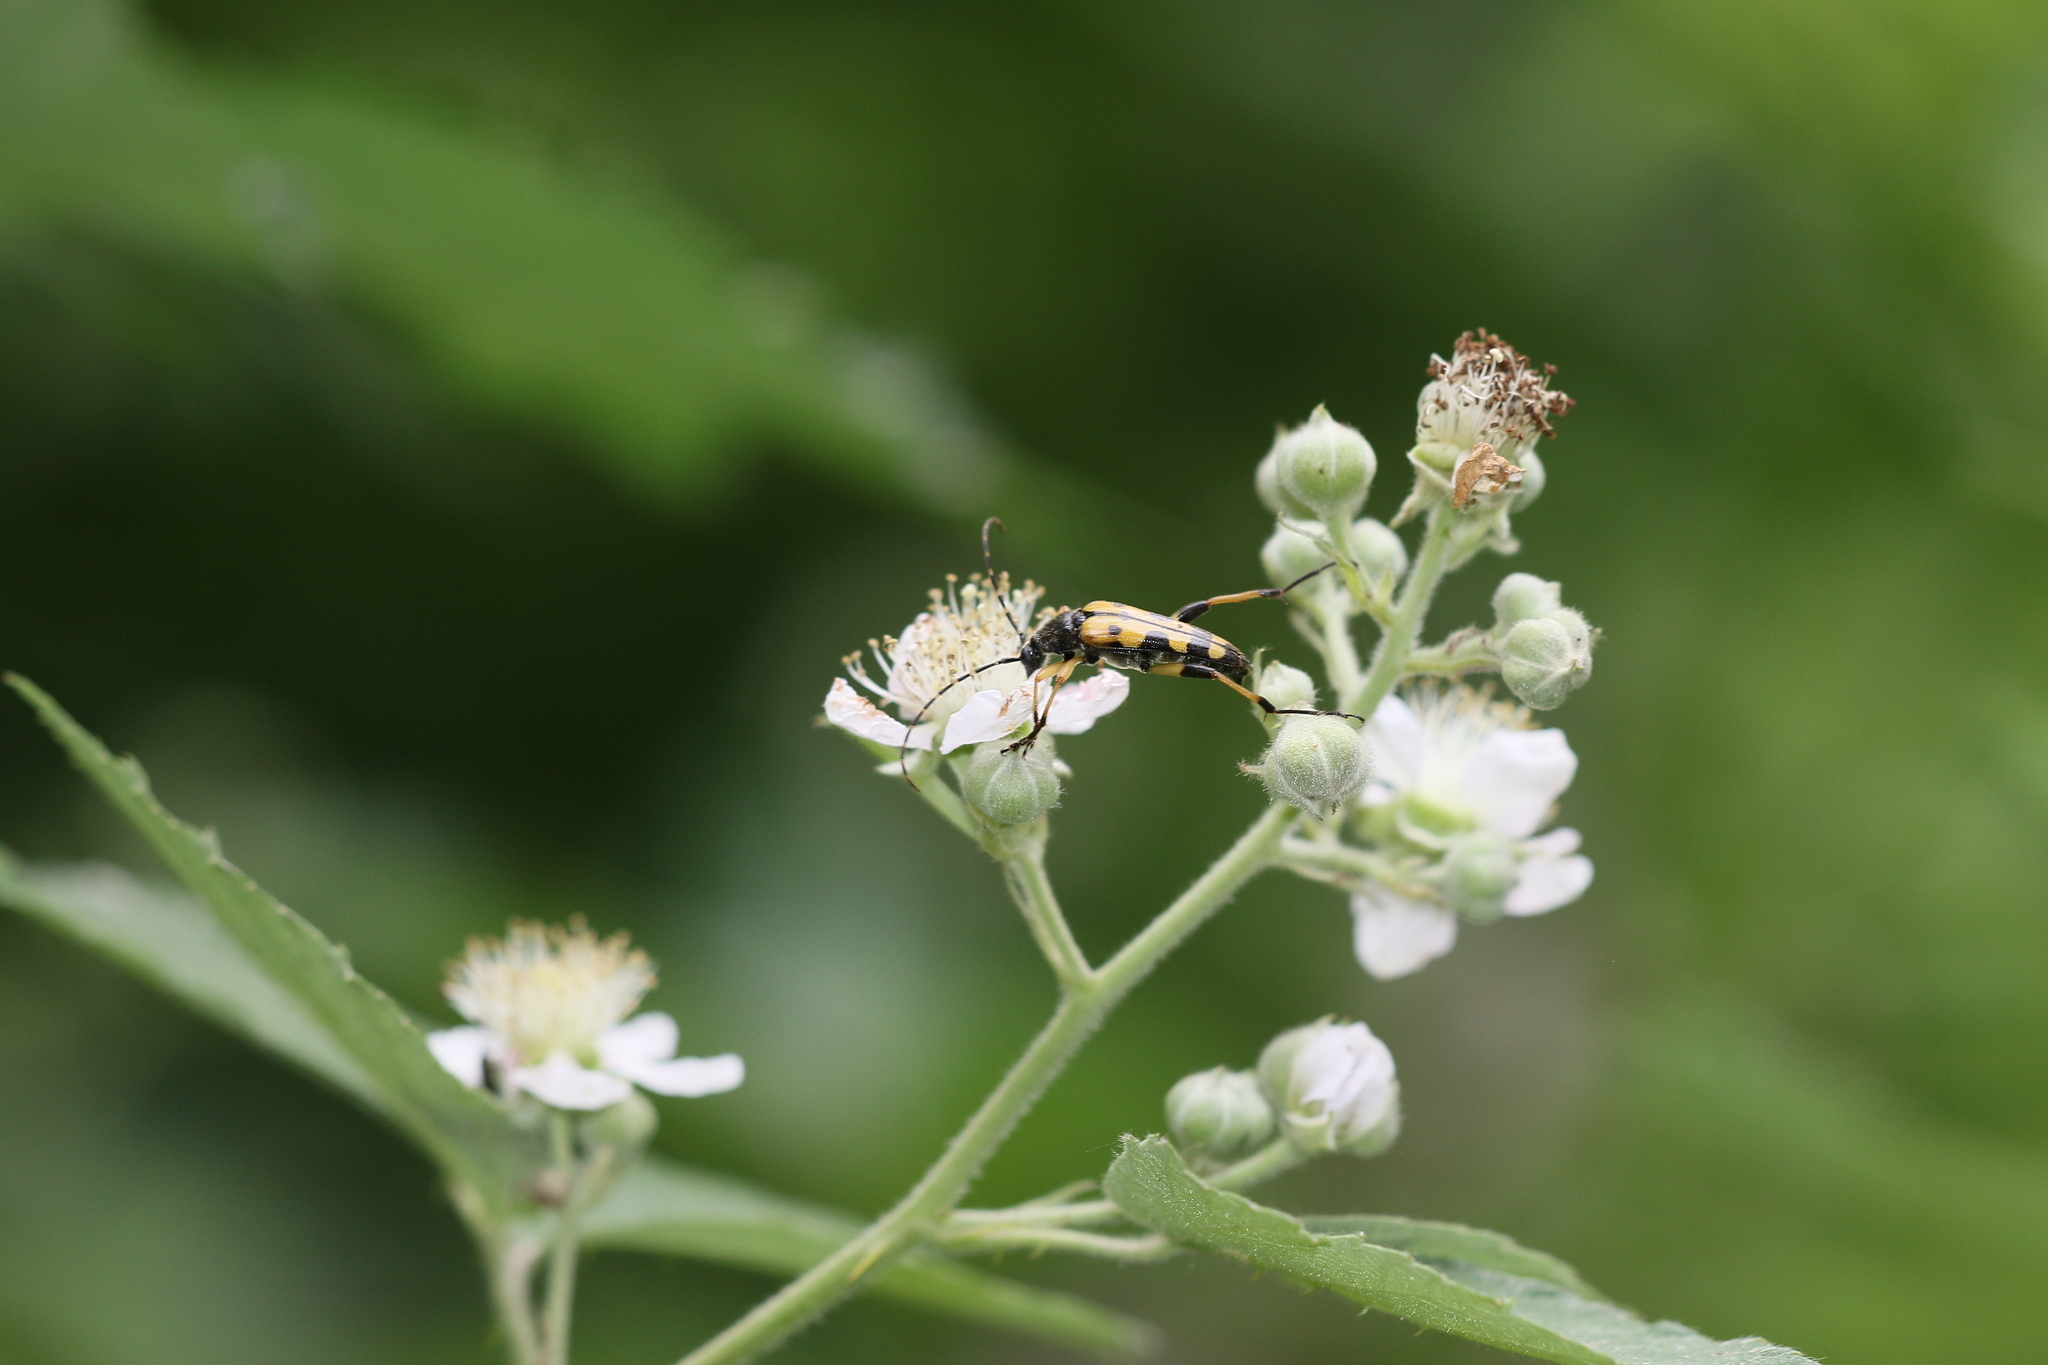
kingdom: Animalia
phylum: Arthropoda
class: Insecta
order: Coleoptera
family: Cerambycidae
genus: Rutpela
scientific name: Rutpela maculata
